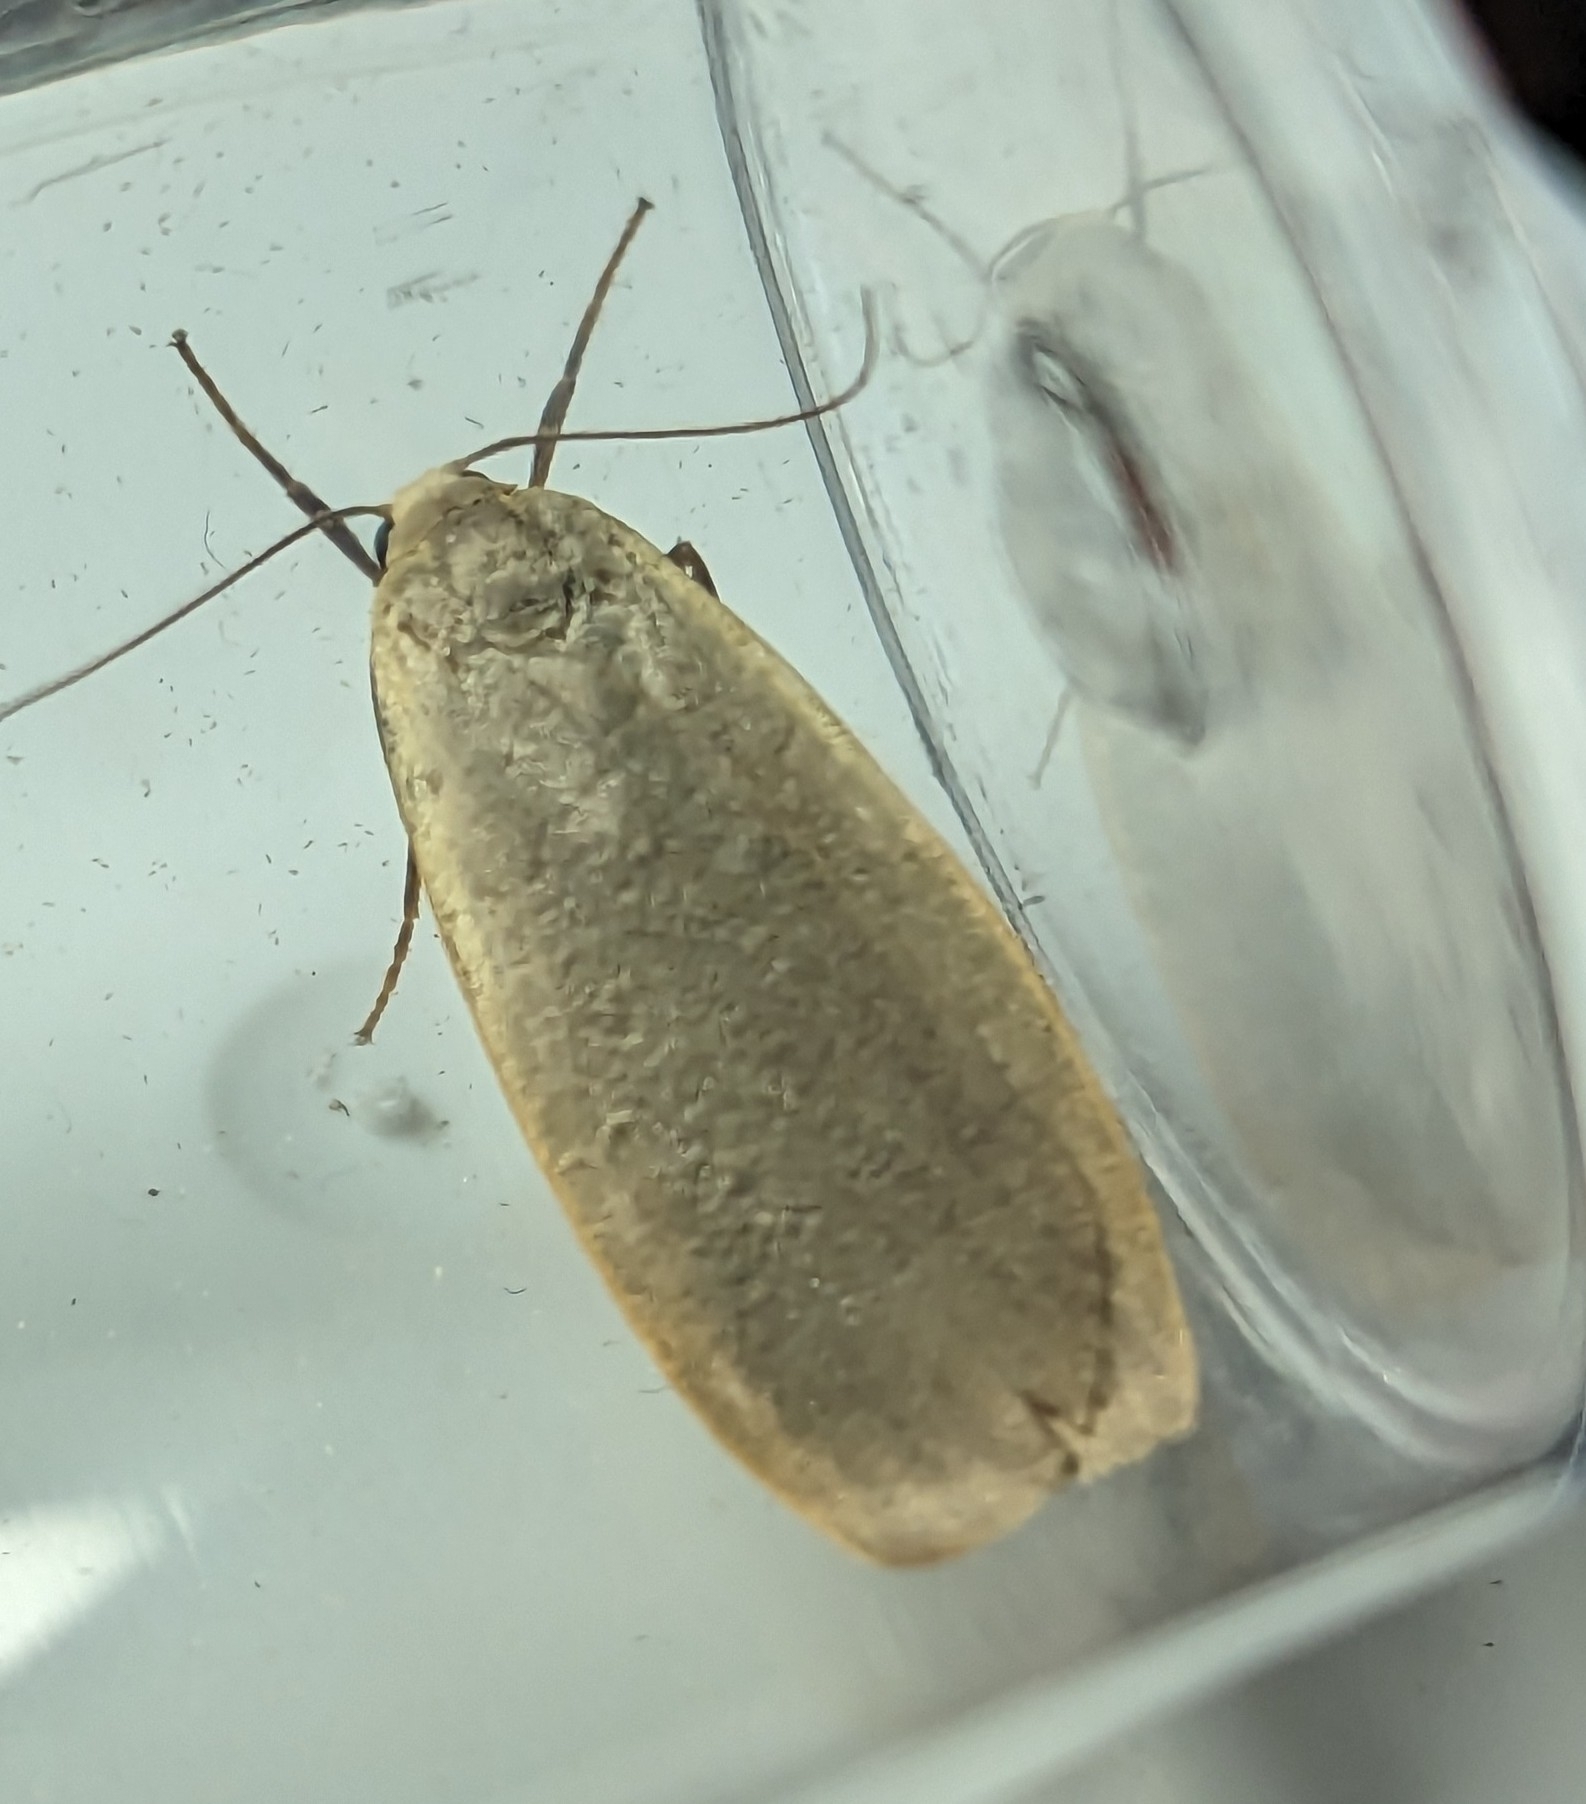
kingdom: Animalia
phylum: Arthropoda
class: Insecta
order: Lepidoptera
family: Erebidae
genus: Collita
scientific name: Collita griseola
